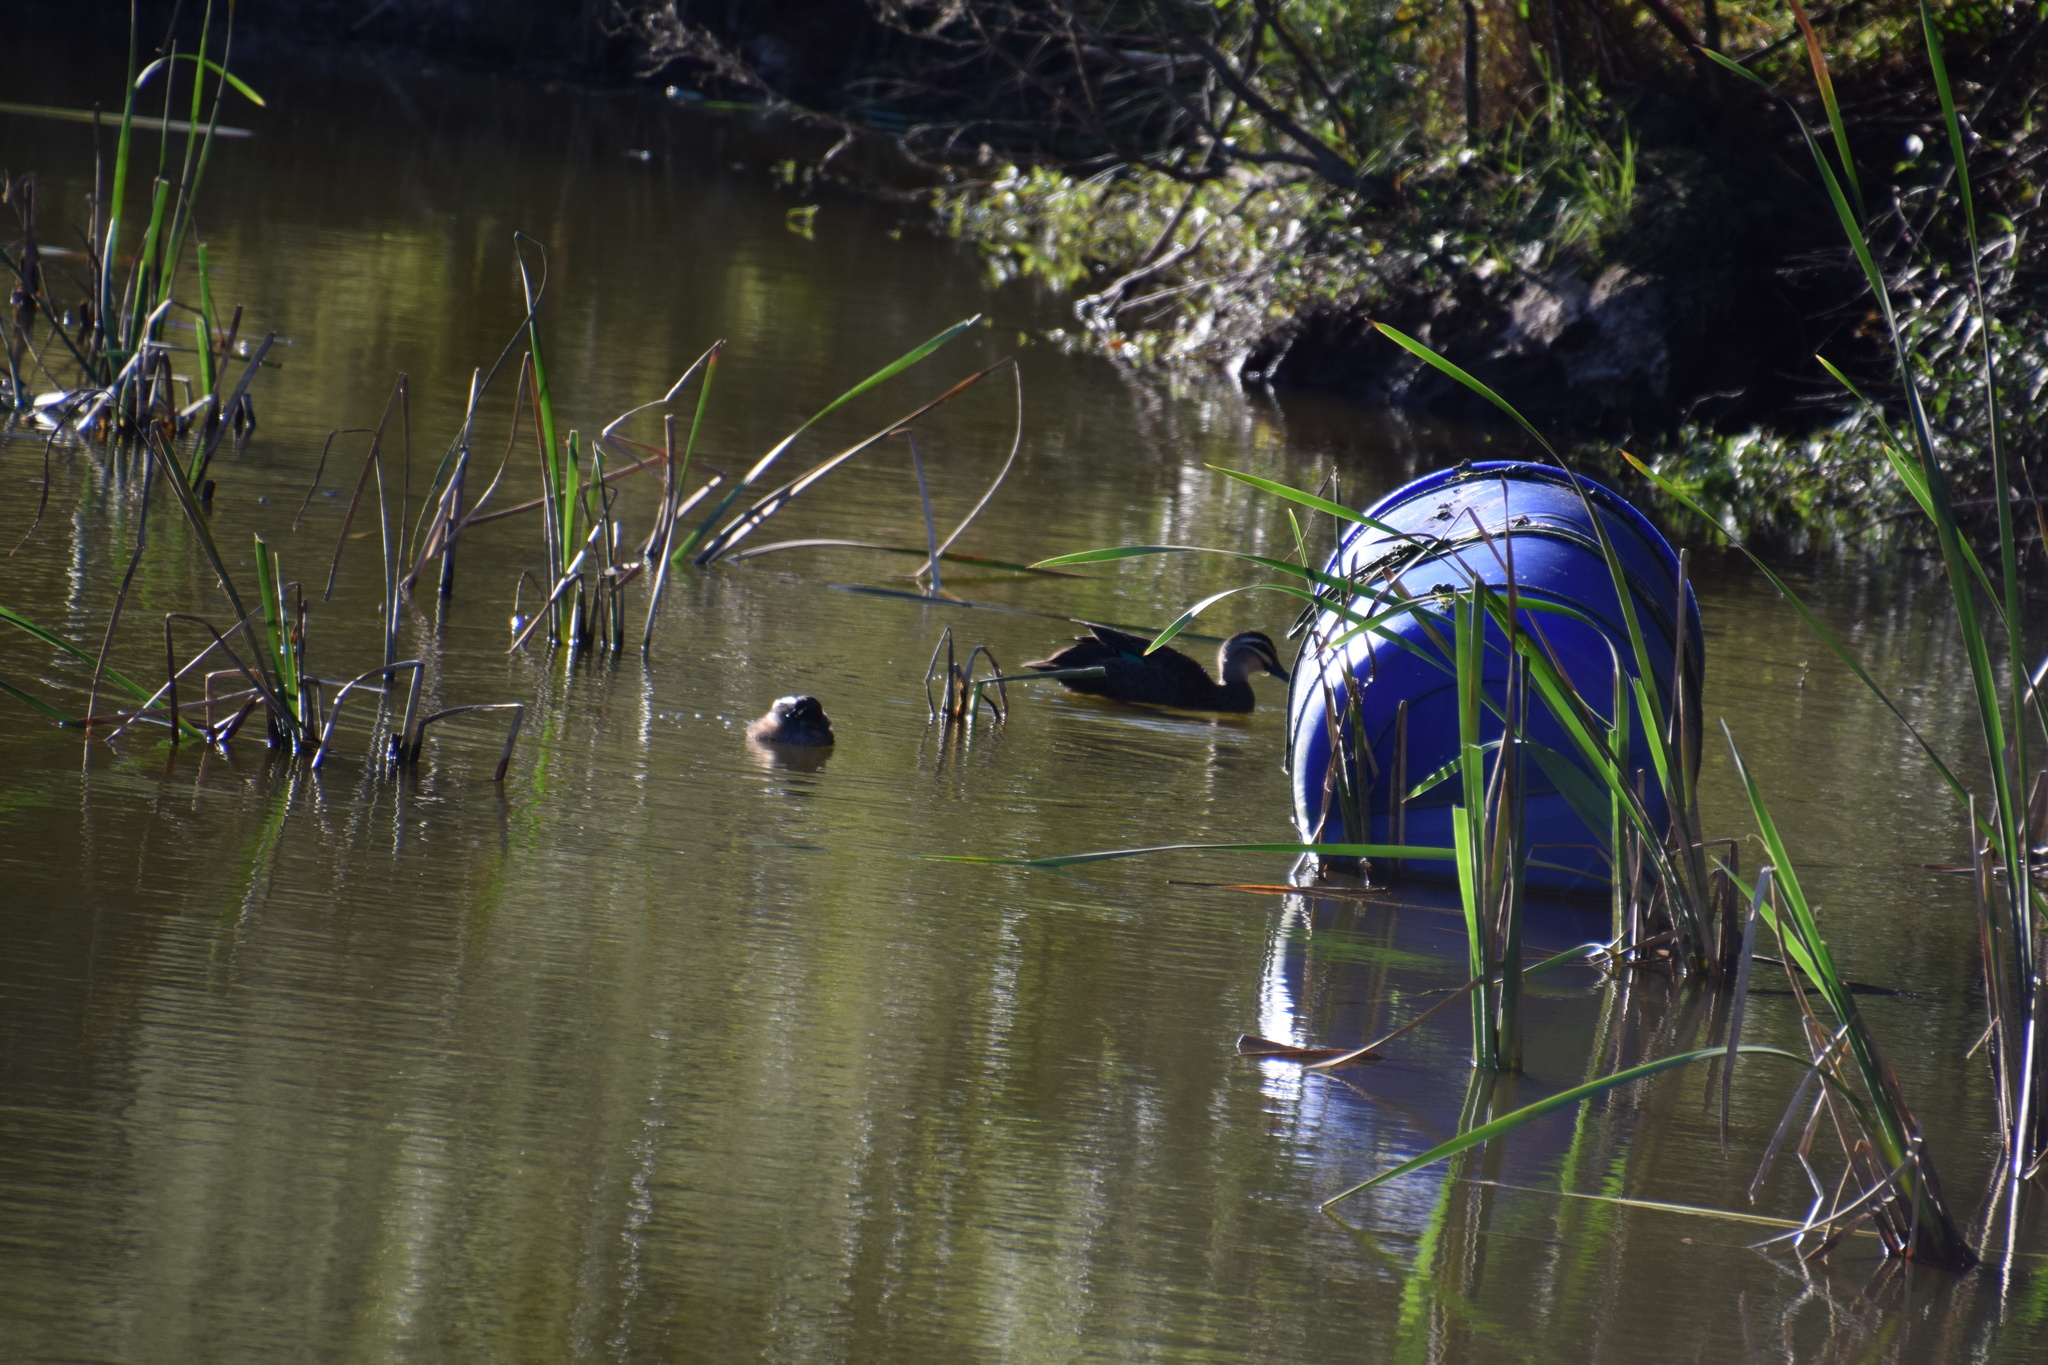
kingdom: Animalia
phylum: Chordata
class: Aves
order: Anseriformes
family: Anatidae
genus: Anas
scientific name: Anas superciliosa
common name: Pacific black duck
